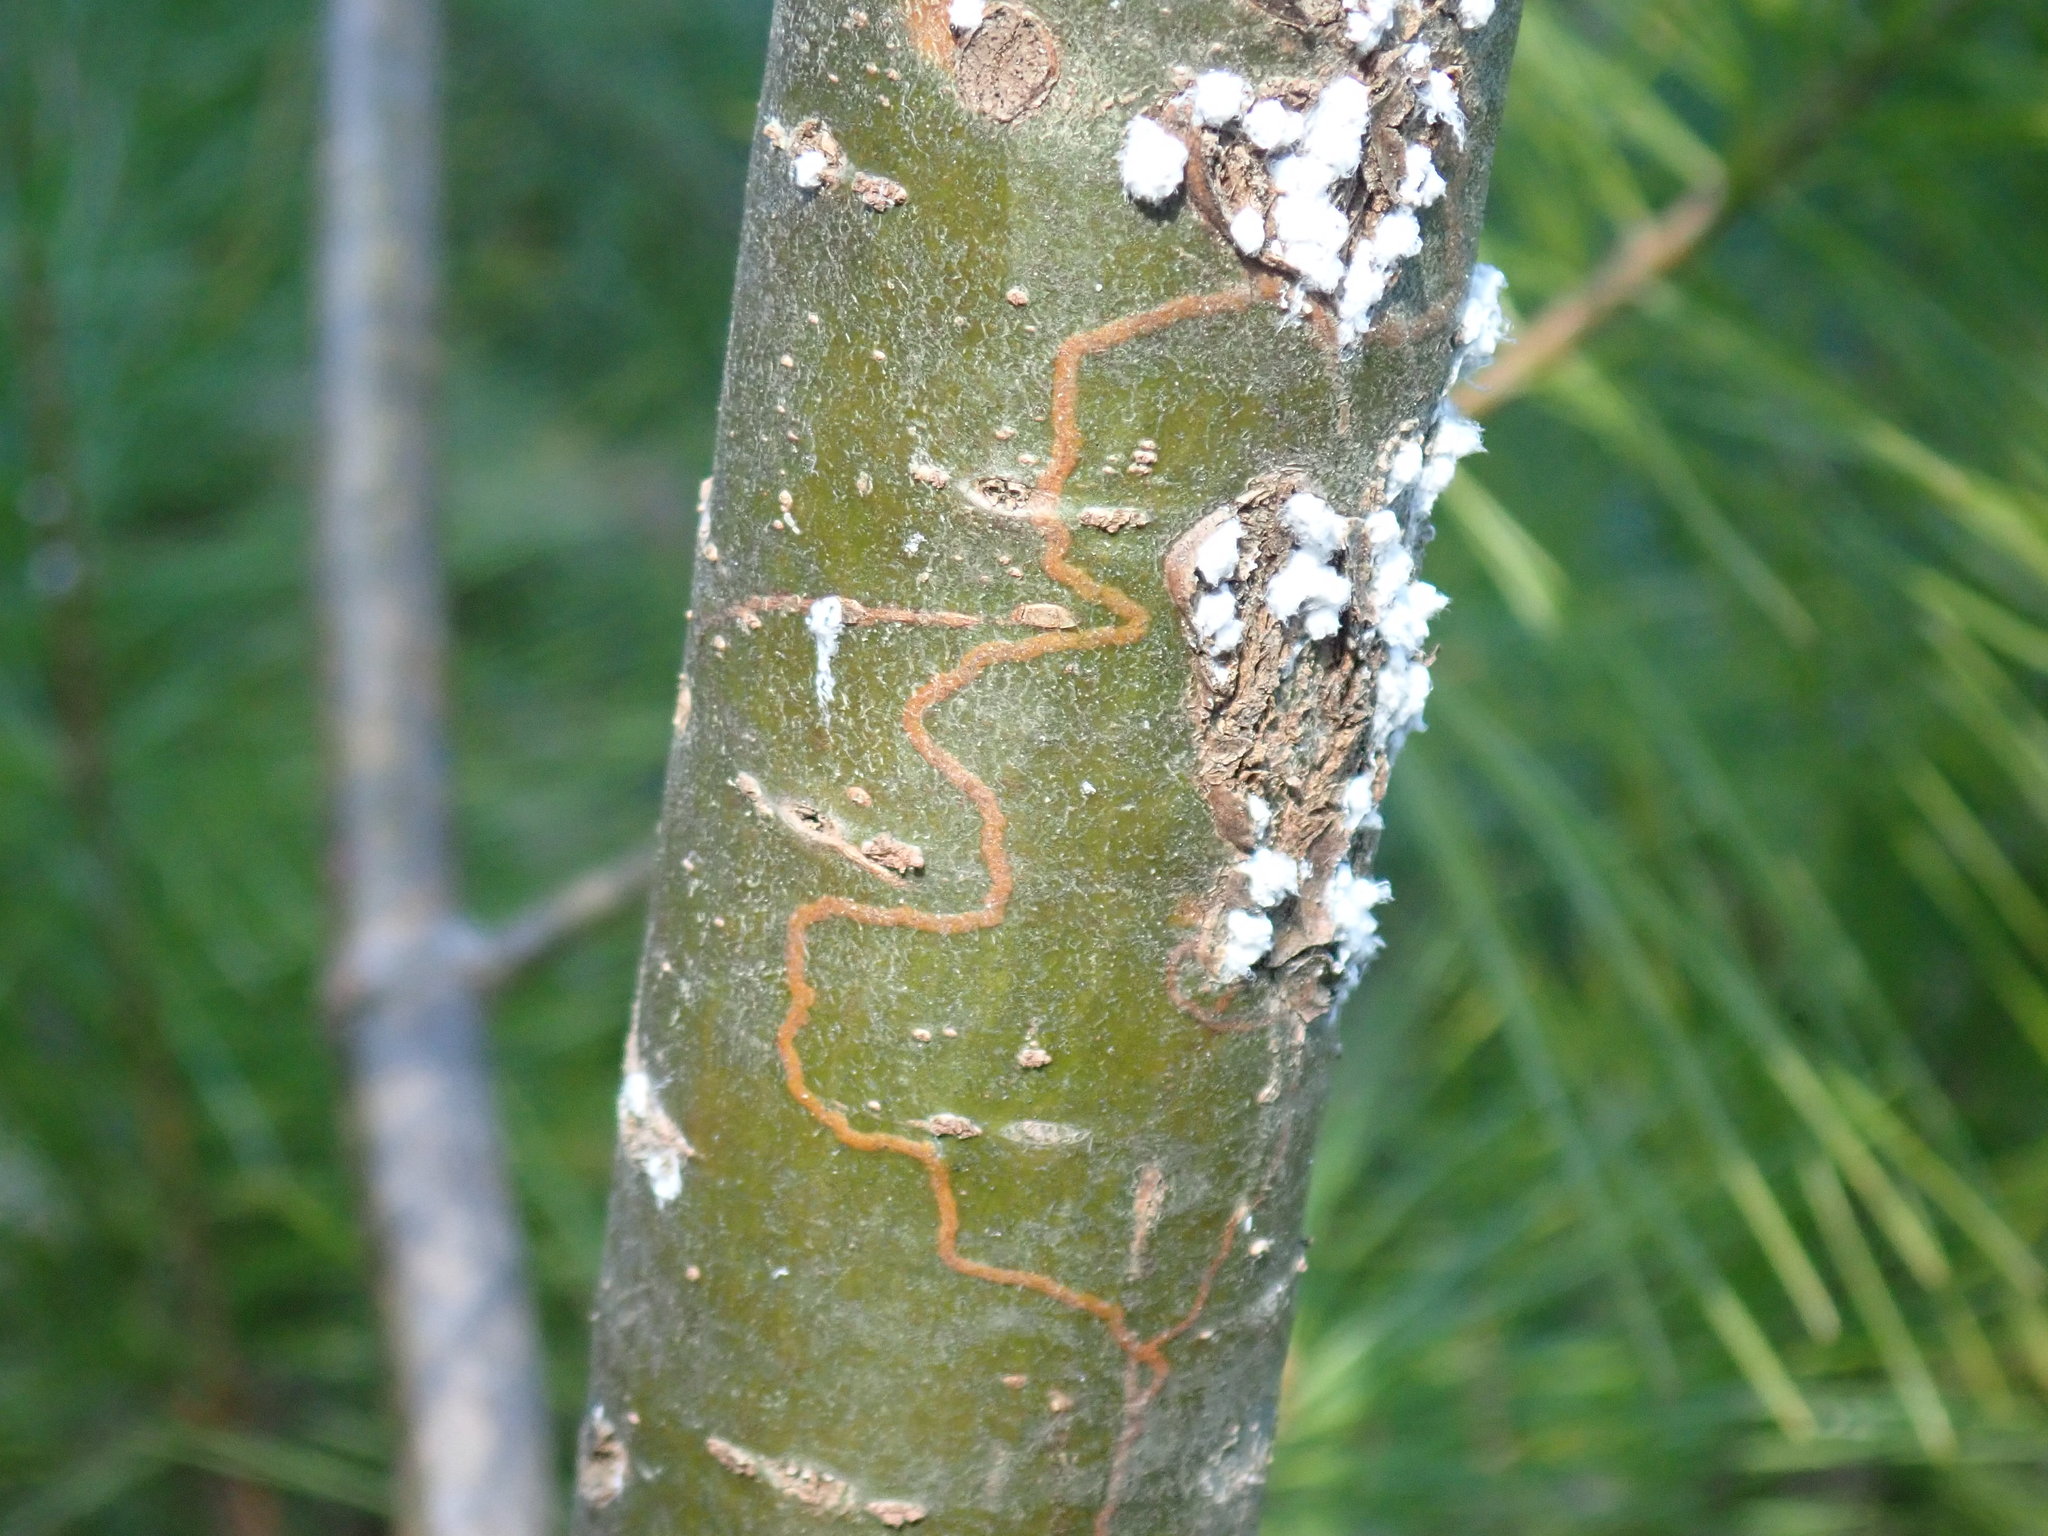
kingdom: Animalia
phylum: Arthropoda
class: Insecta
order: Lepidoptera
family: Gracillariidae
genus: Marmara
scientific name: Marmara fasciella
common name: White pine barkminer moth
